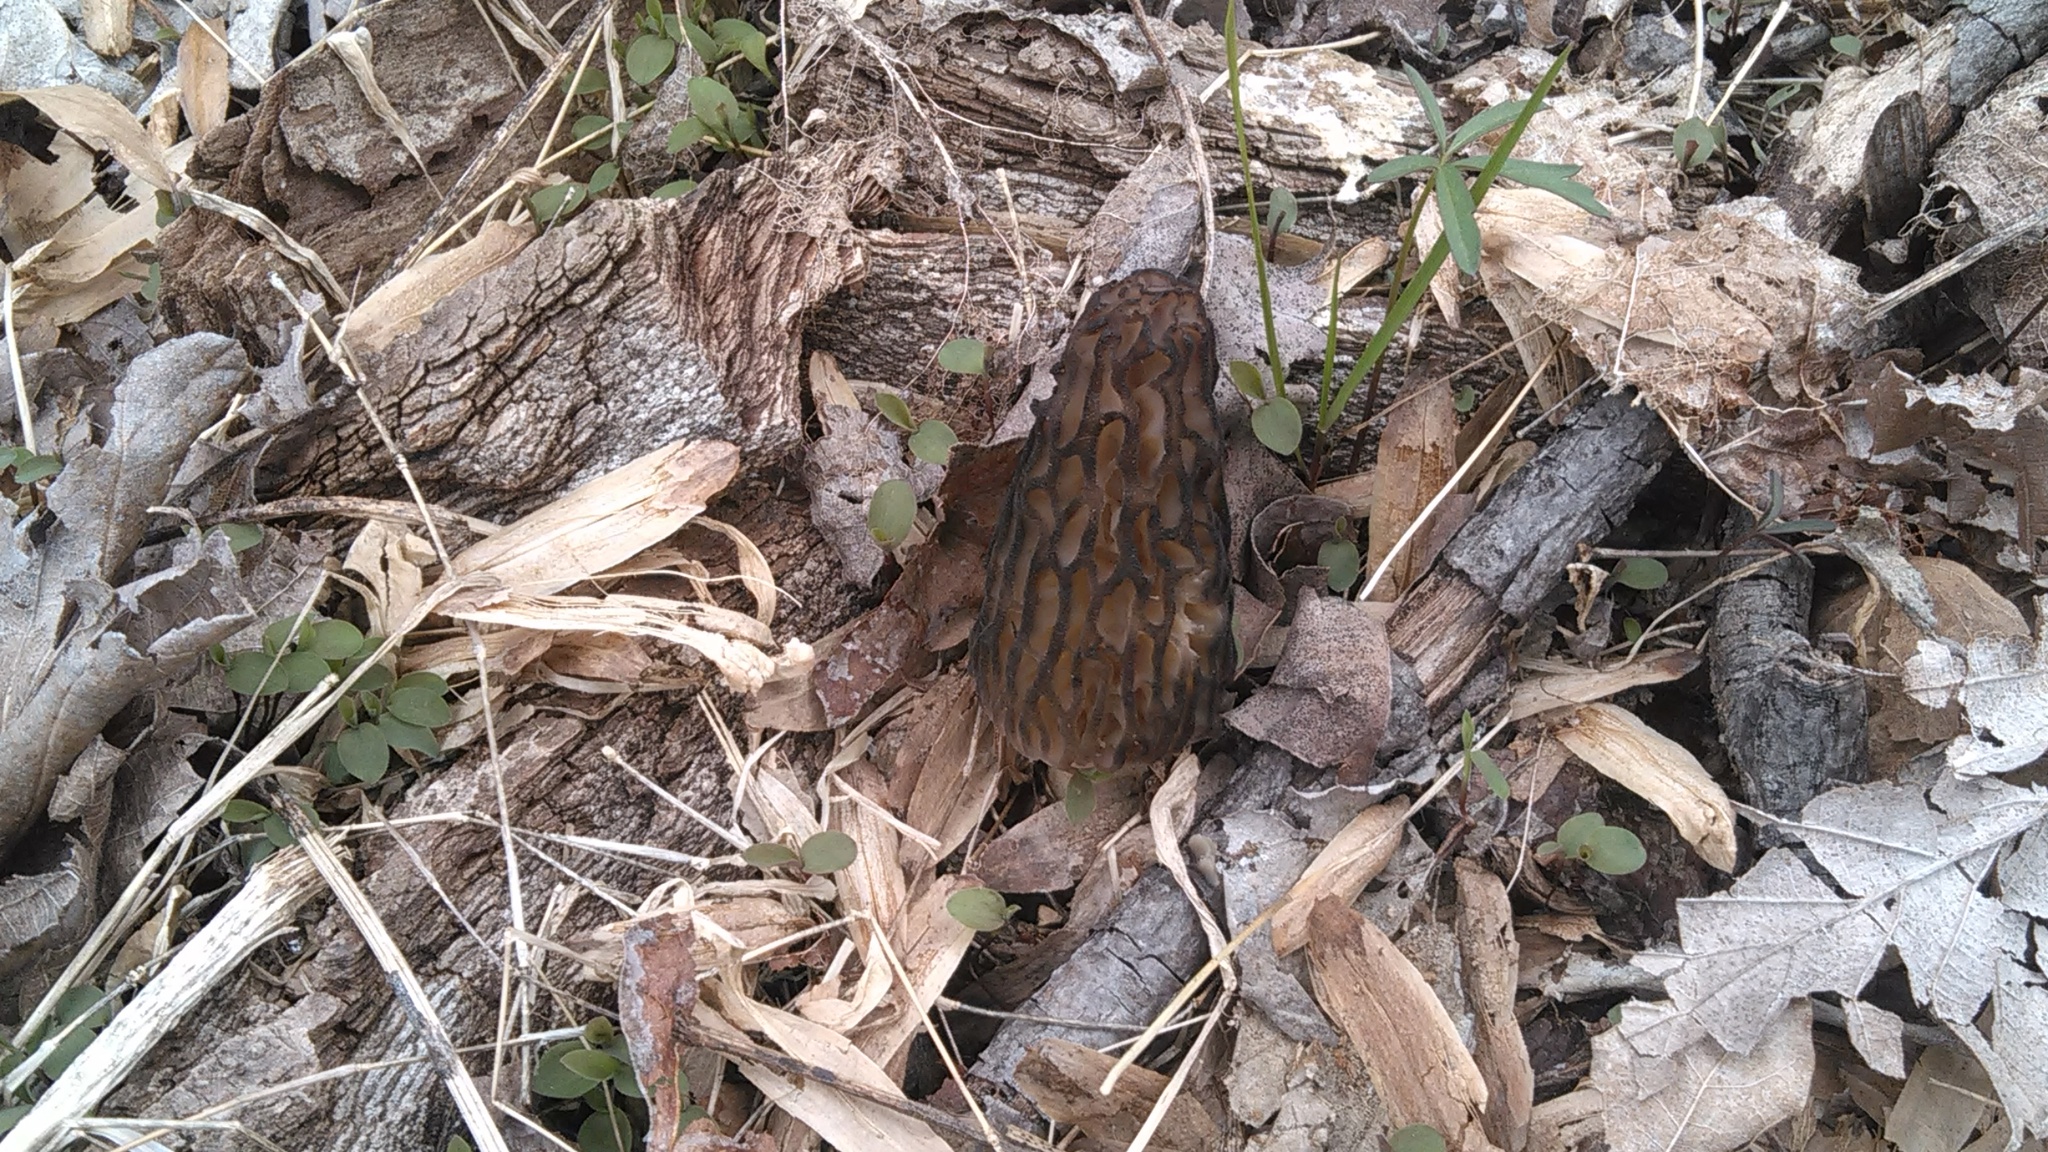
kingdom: Fungi
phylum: Ascomycota
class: Pezizomycetes
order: Pezizales
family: Morchellaceae
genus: Morchella
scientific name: Morchella angusticeps
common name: Black morel
